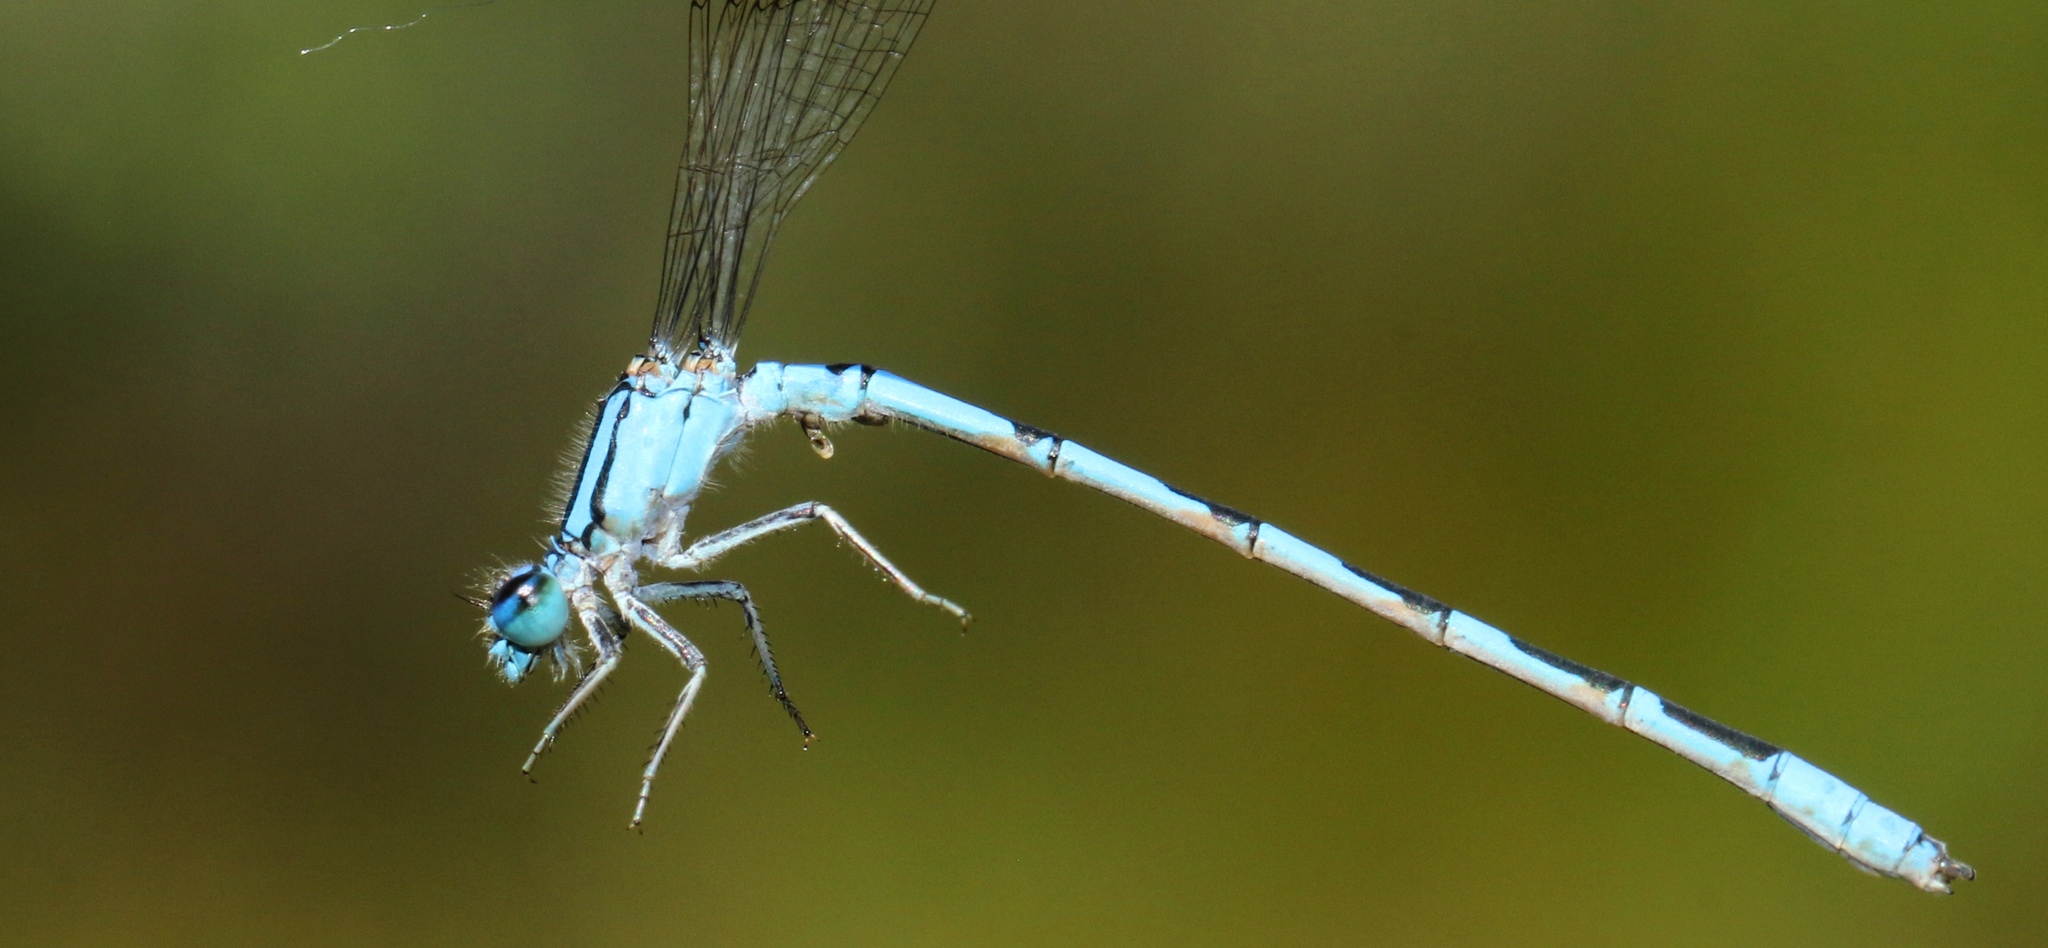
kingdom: Animalia
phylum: Arthropoda
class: Insecta
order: Odonata
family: Coenagrionidae
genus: Enallagma
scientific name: Enallagma anna
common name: River bluet
